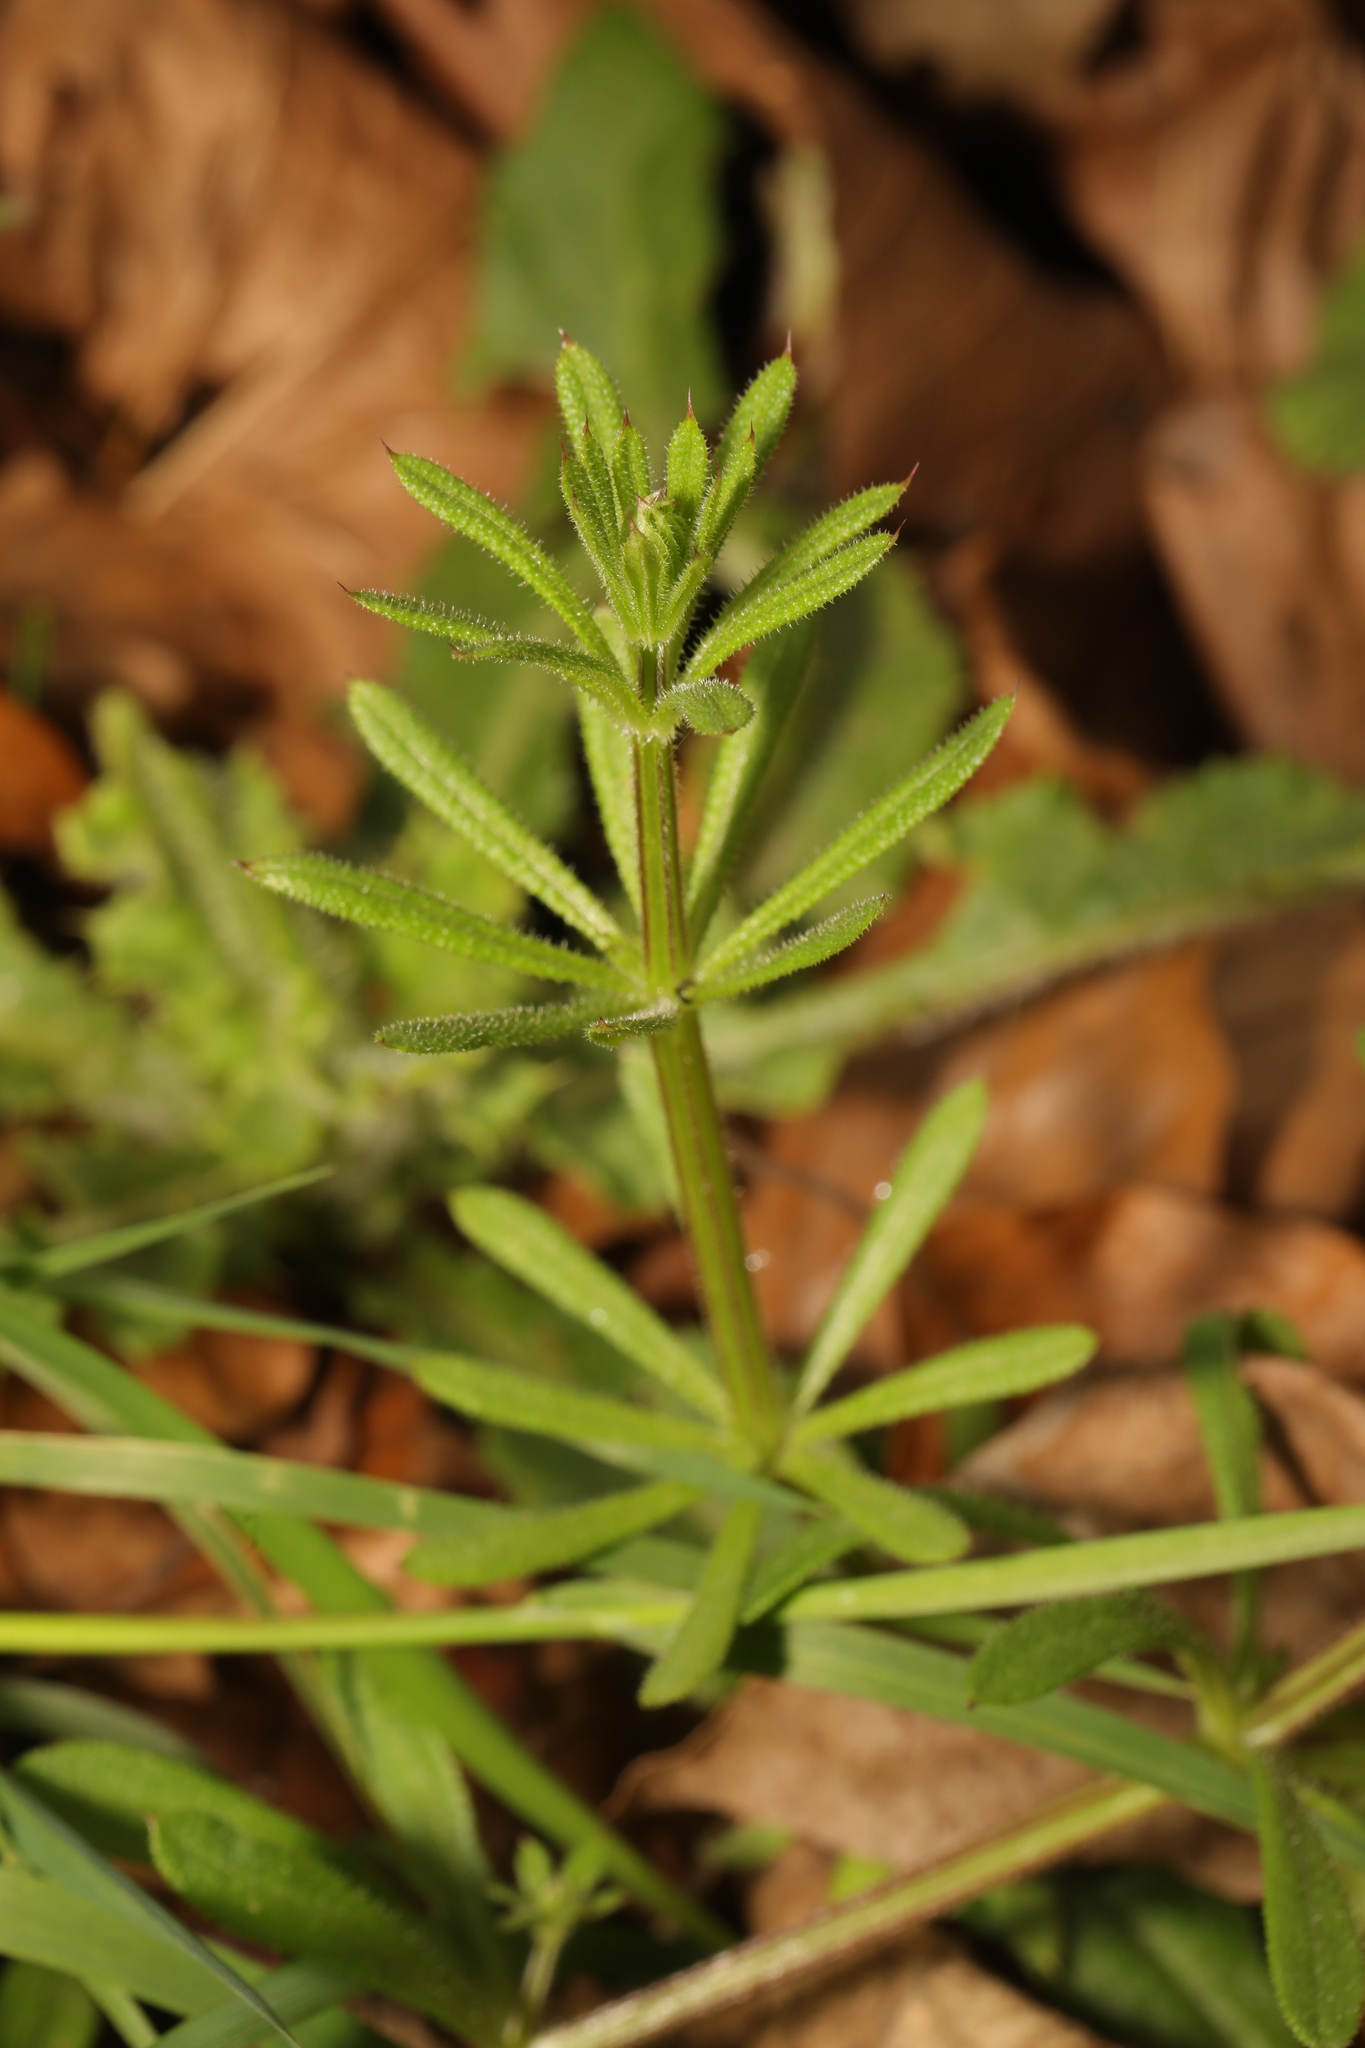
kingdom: Plantae
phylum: Tracheophyta
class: Magnoliopsida
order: Gentianales
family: Rubiaceae
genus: Galium
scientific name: Galium aparine
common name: Cleavers
